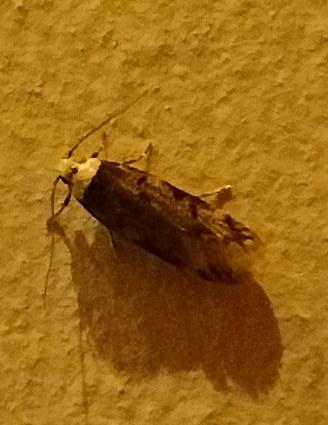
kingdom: Animalia
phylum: Arthropoda
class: Insecta
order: Lepidoptera
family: Oecophoridae
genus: Endrosis
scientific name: Endrosis sarcitrella
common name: White-shouldered house moth
